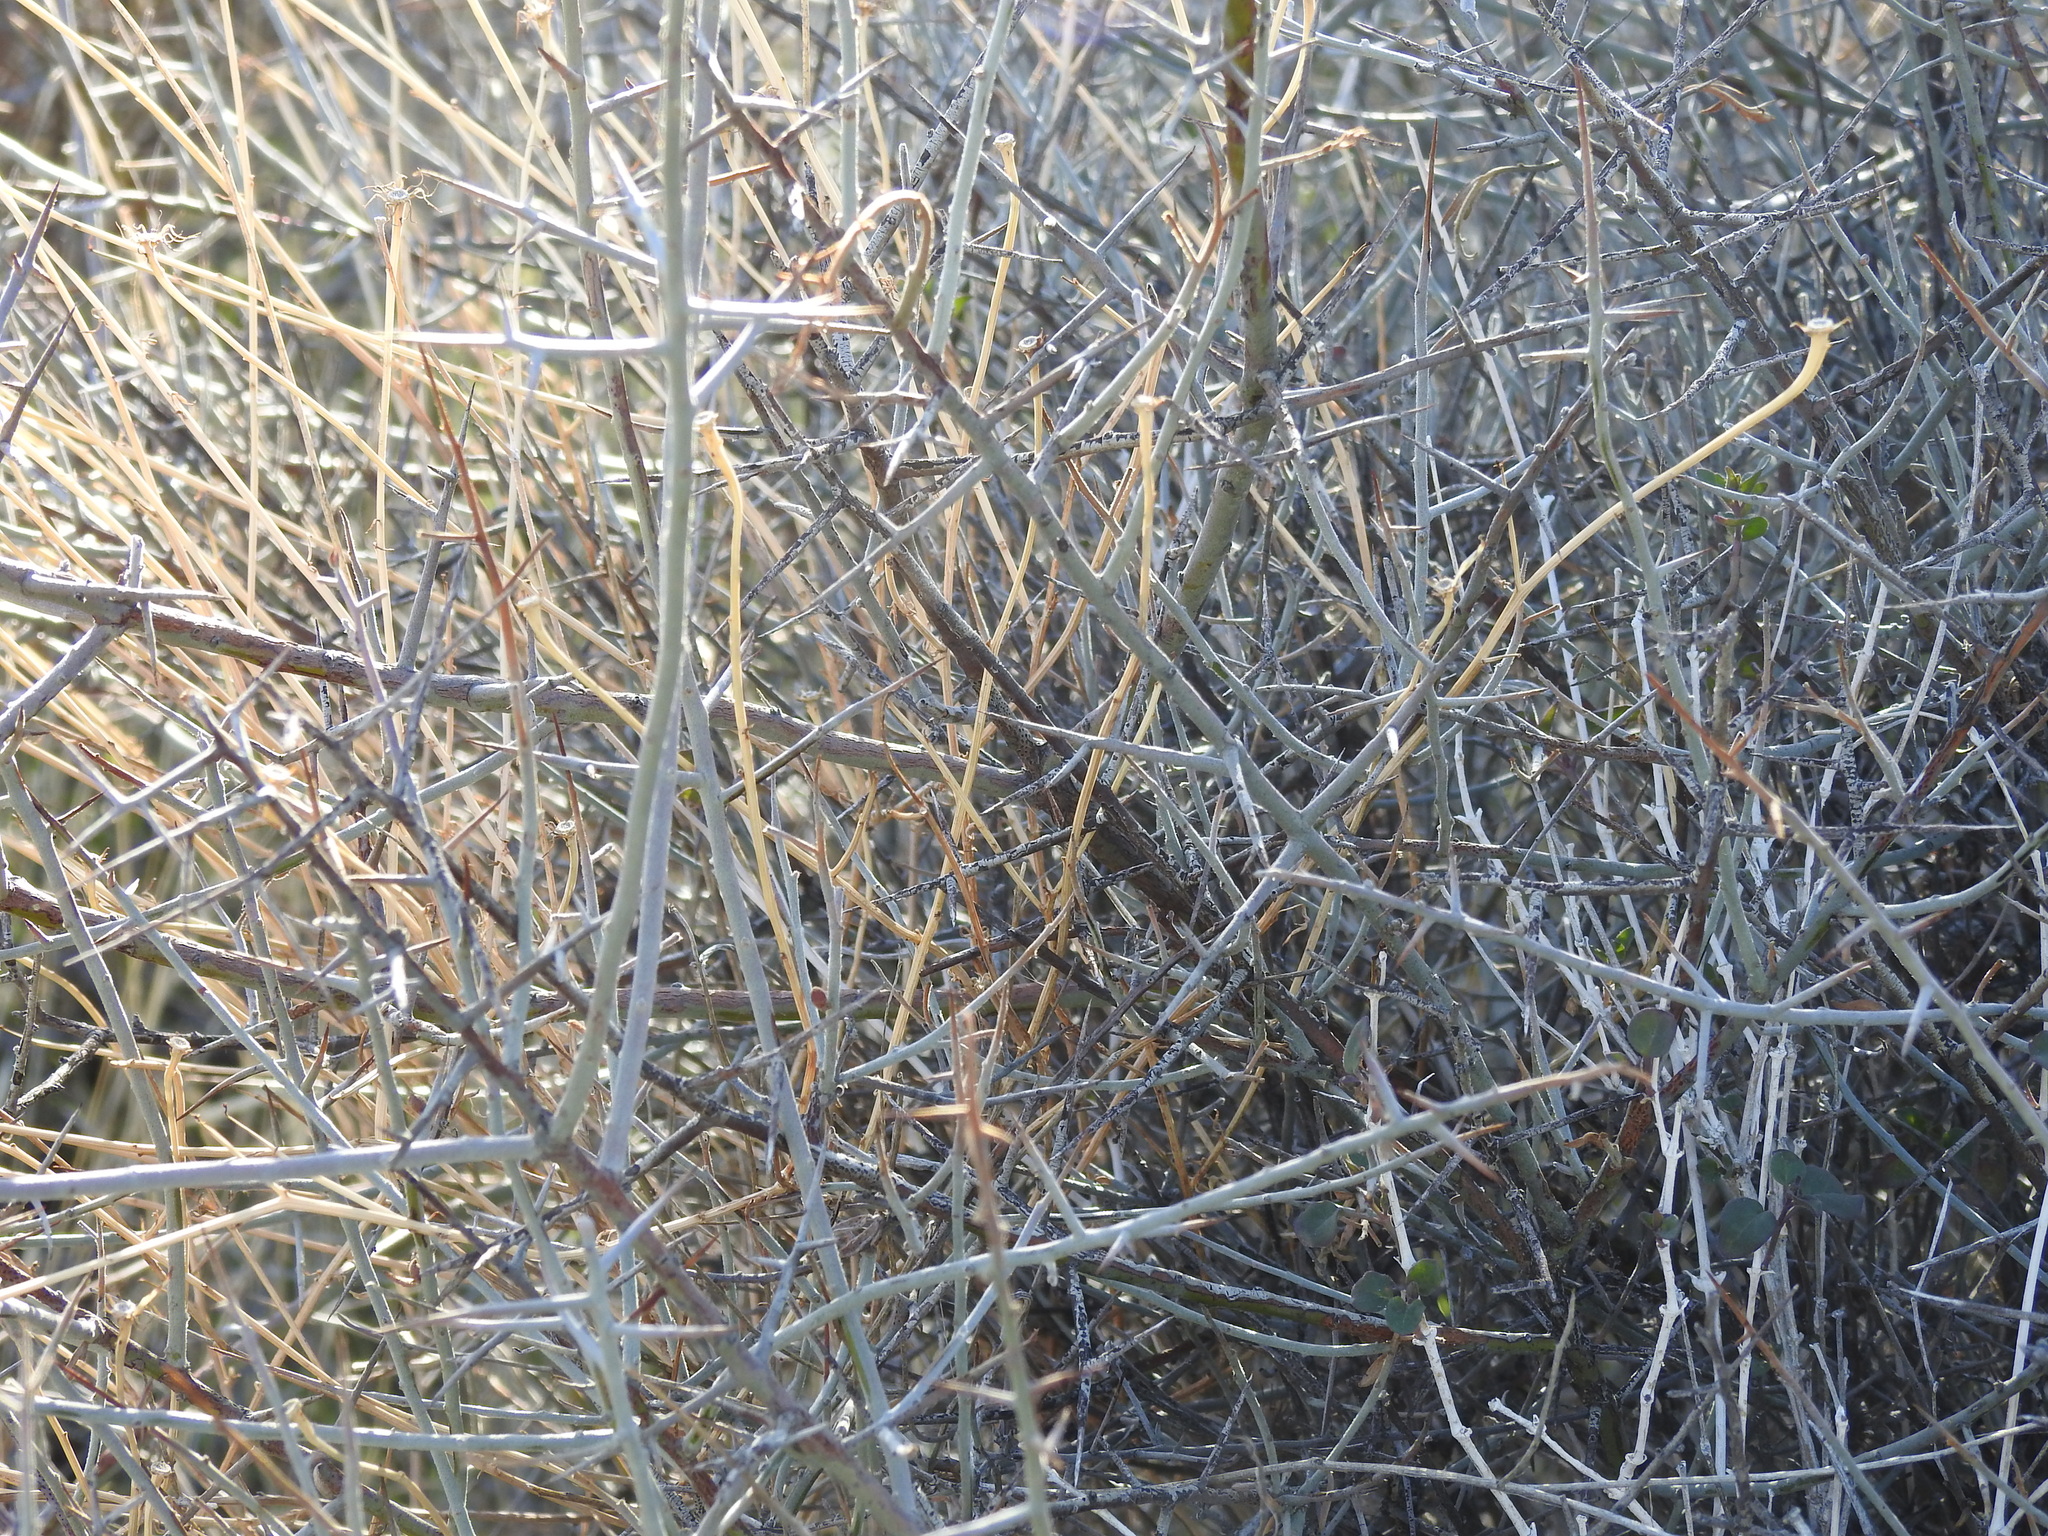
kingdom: Plantae
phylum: Tracheophyta
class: Magnoliopsida
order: Zygophyllales
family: Krameriaceae
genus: Krameria
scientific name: Krameria bicolor
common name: White ratany
